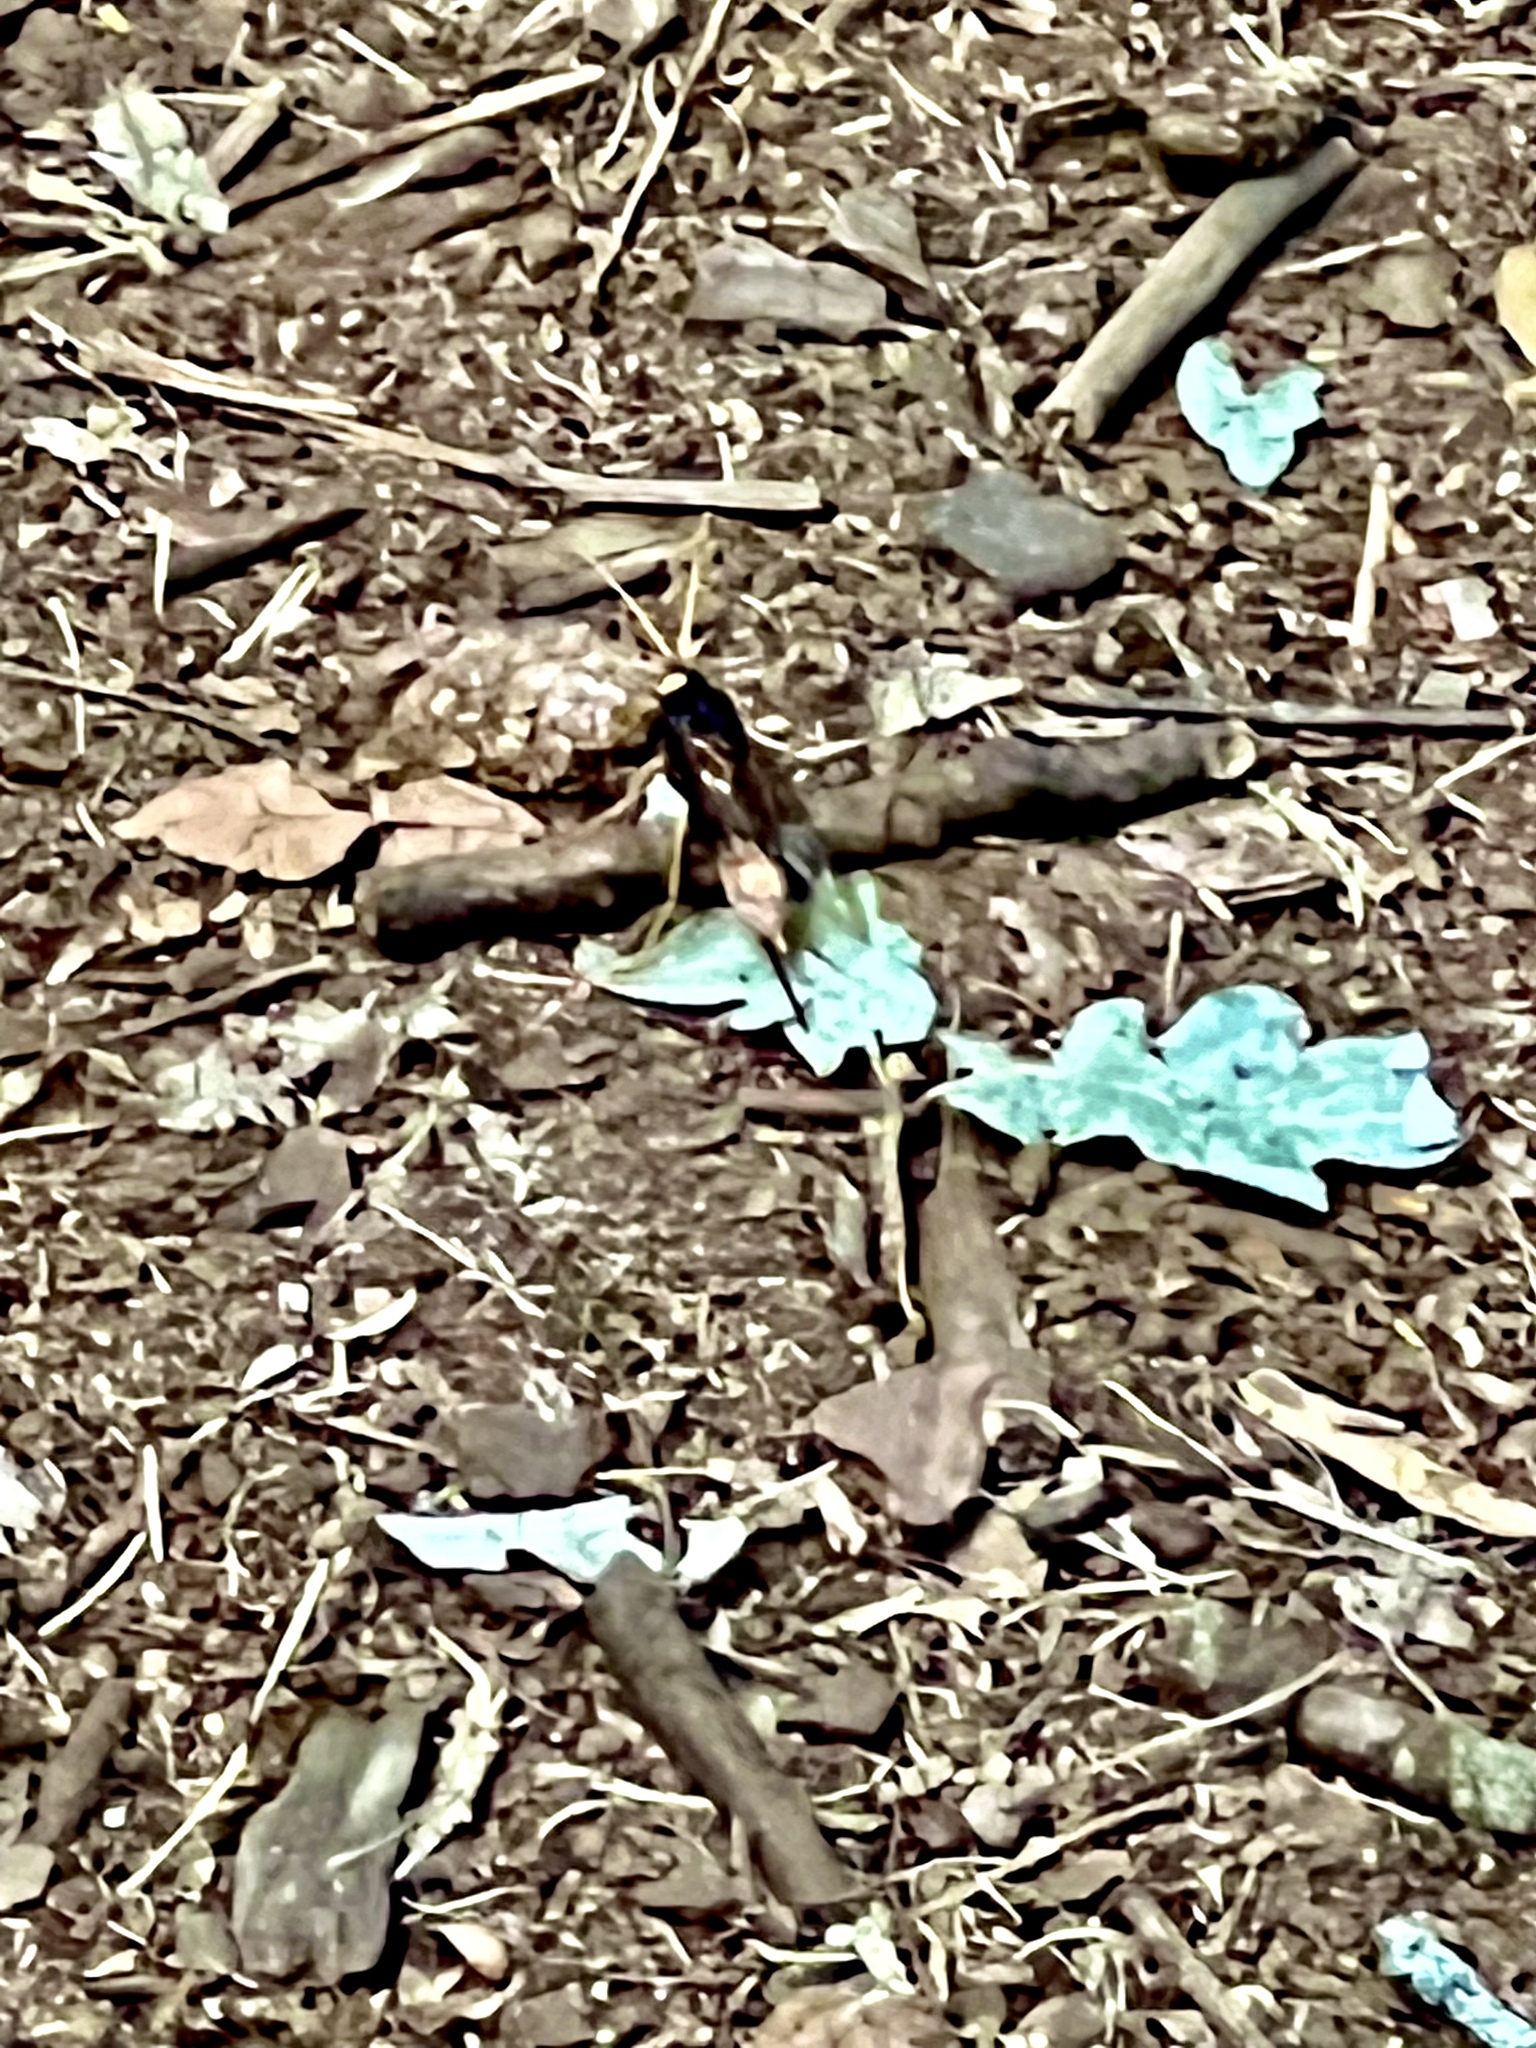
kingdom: Animalia
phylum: Arthropoda
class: Insecta
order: Hymenoptera
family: Siricidae
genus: Urocerus
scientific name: Urocerus gigas
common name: Giant woodwasp
